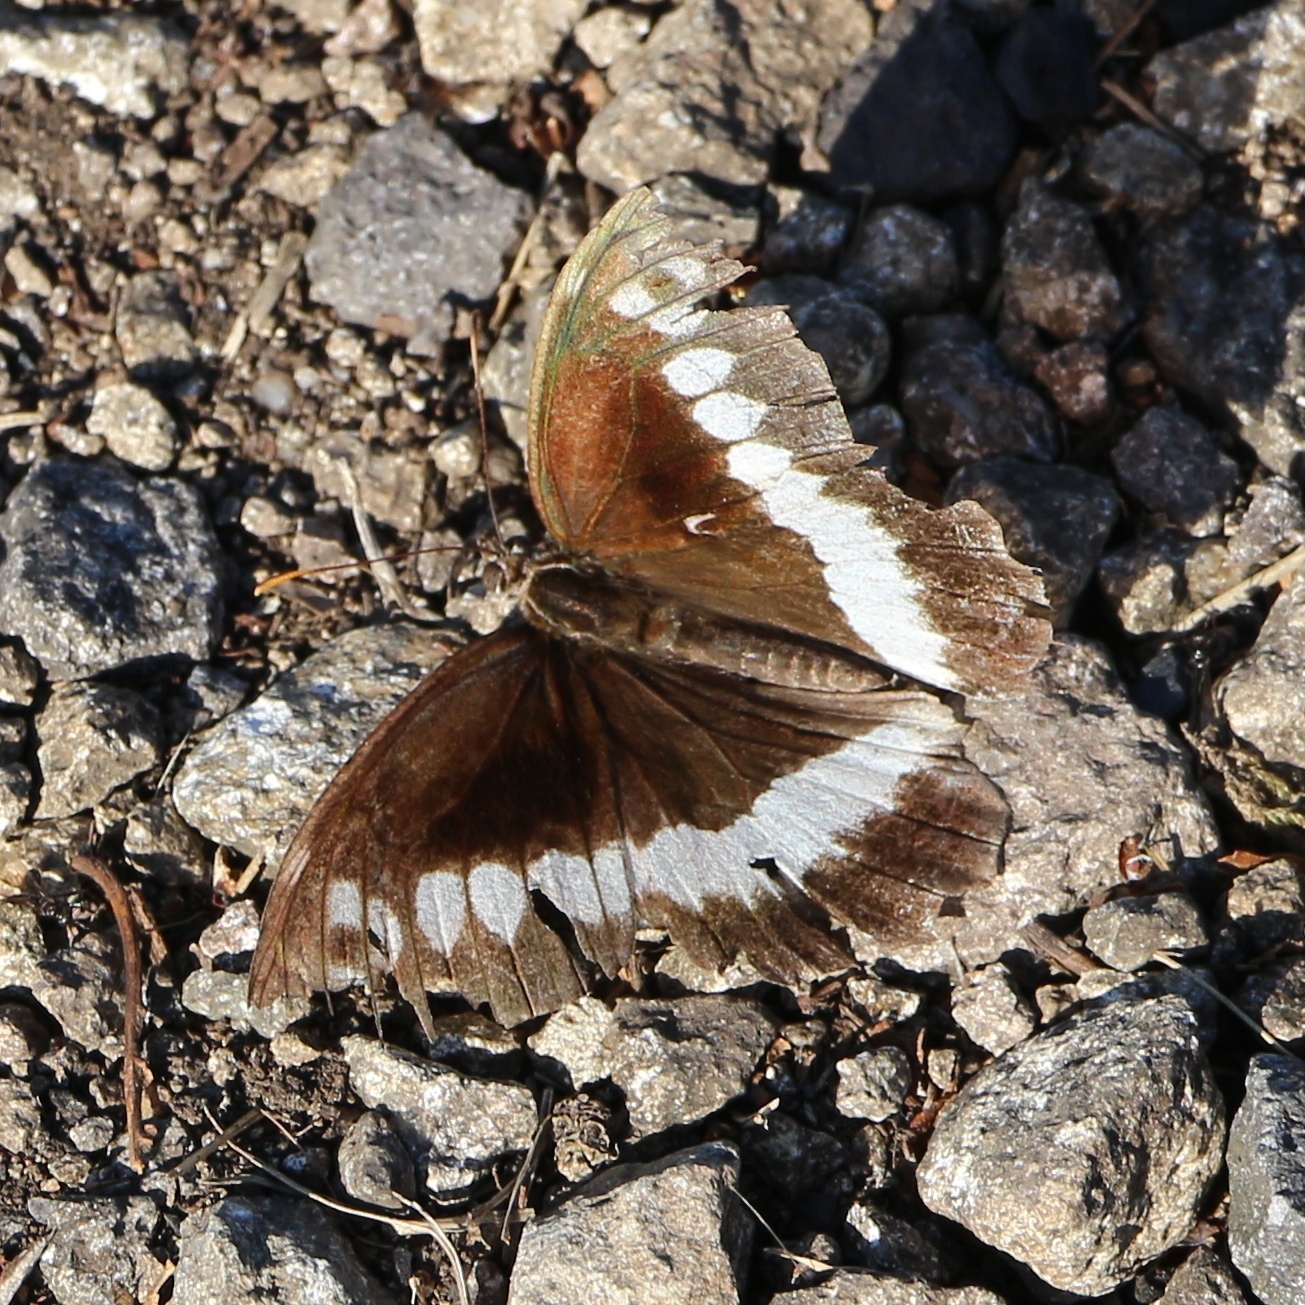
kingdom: Animalia
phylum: Arthropoda
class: Insecta
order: Lepidoptera
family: Lycaenidae
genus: Loweia
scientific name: Loweia tityrus
